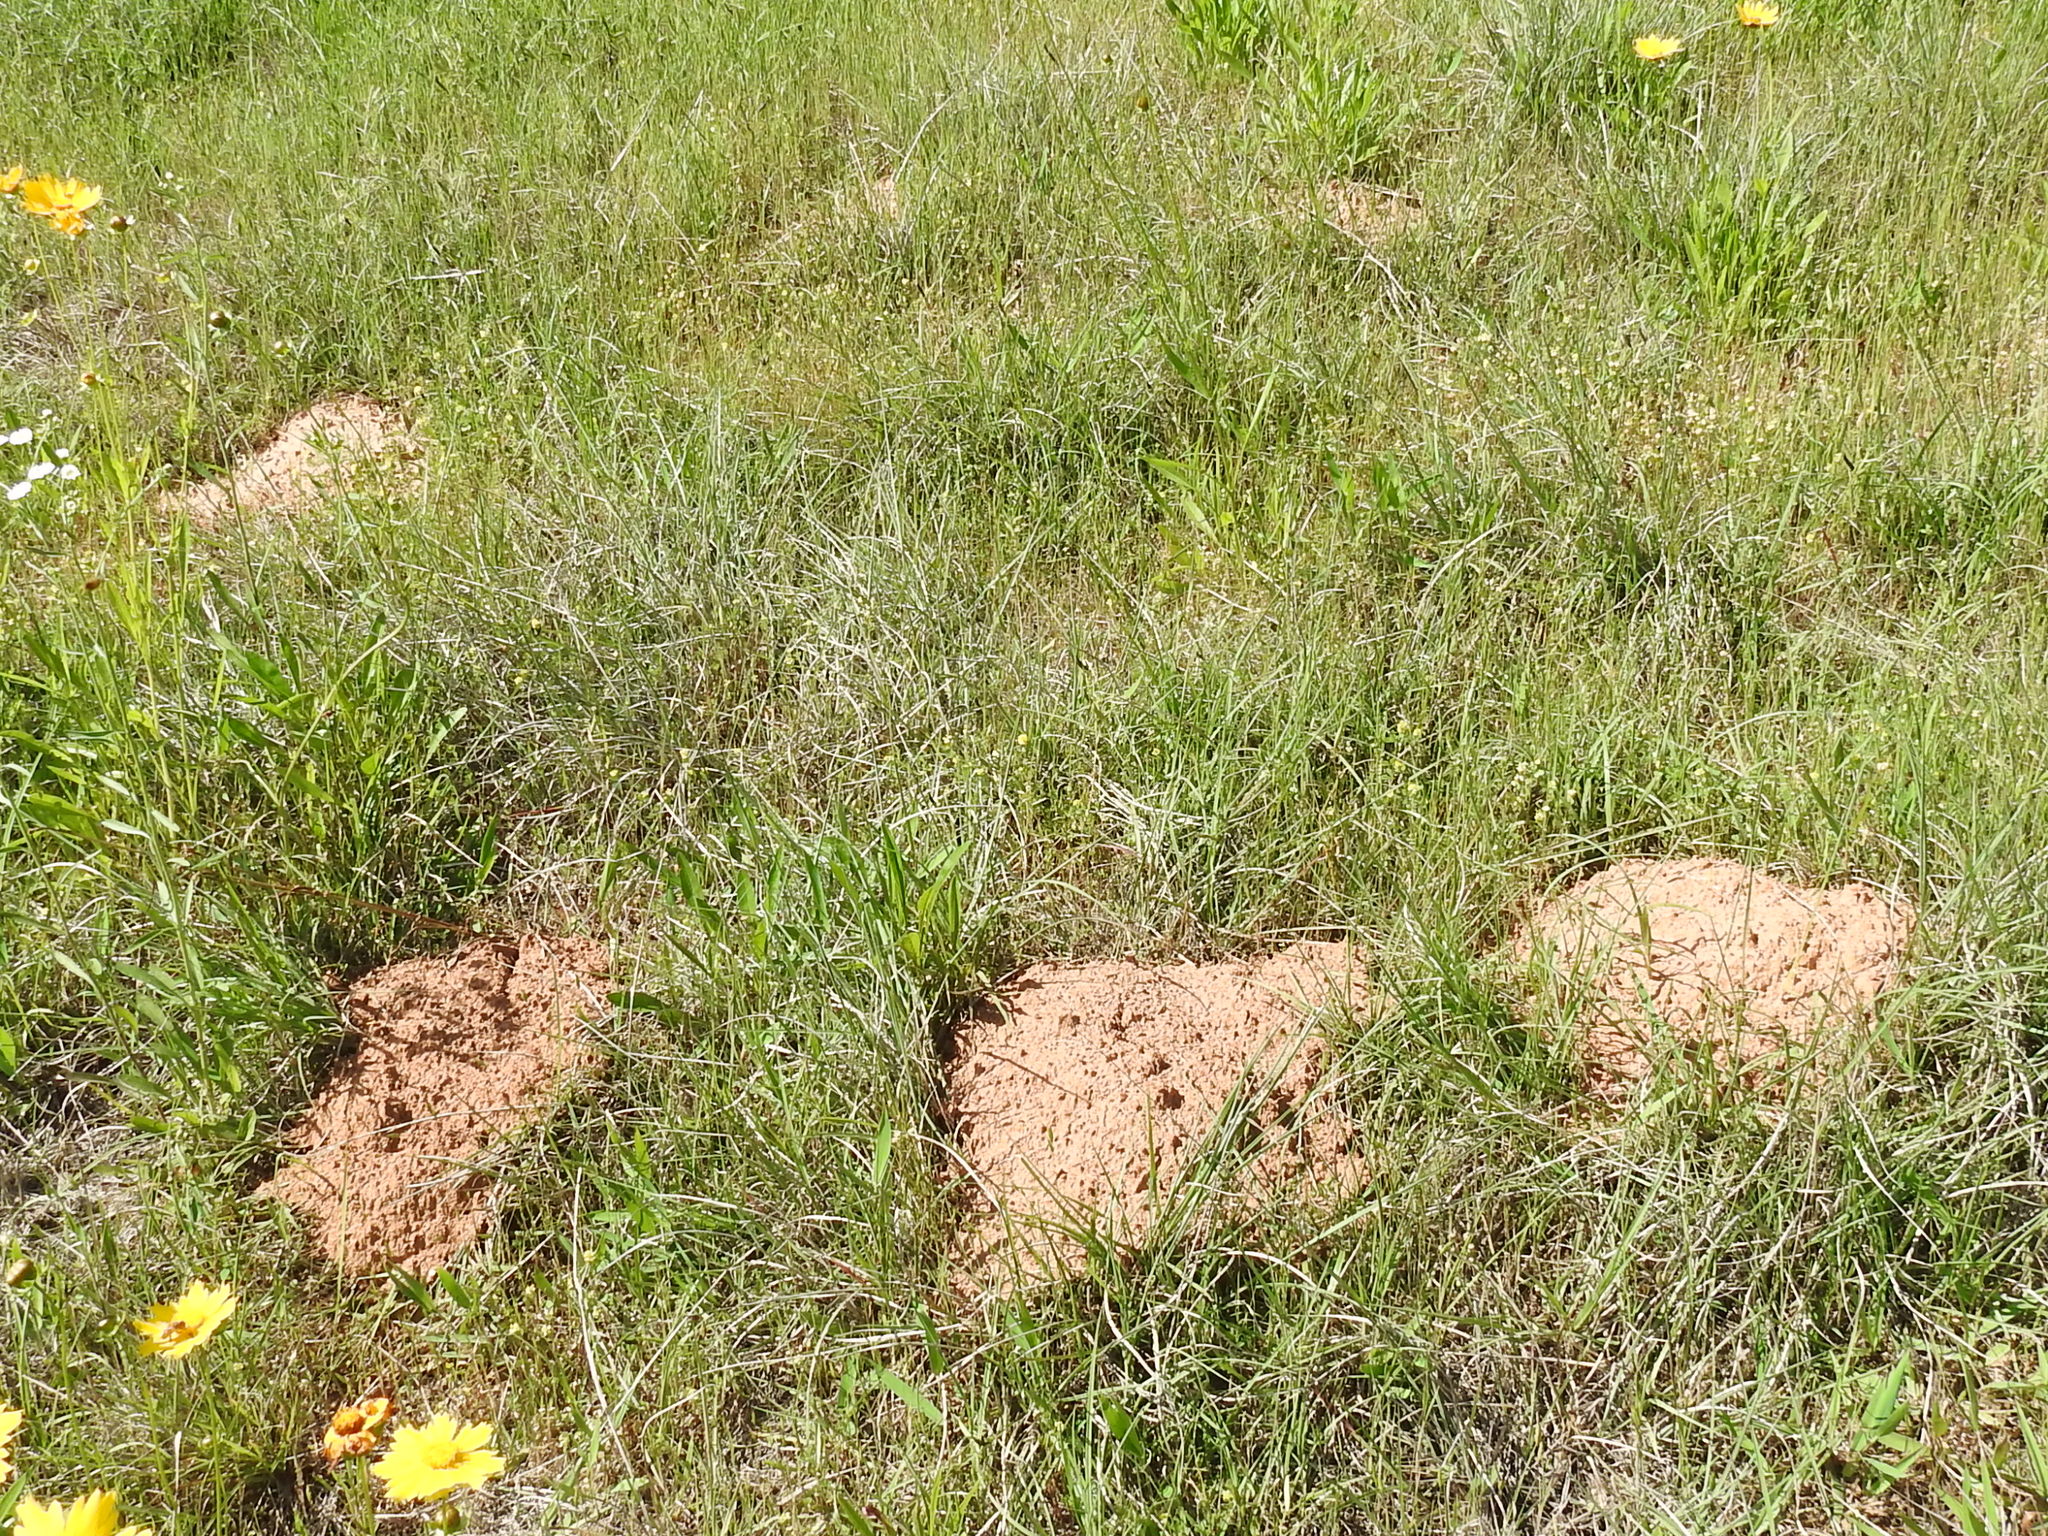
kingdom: Animalia
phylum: Chordata
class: Mammalia
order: Rodentia
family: Geomyidae
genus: Geomys
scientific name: Geomys breviceps
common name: Baird's pocket gopher
